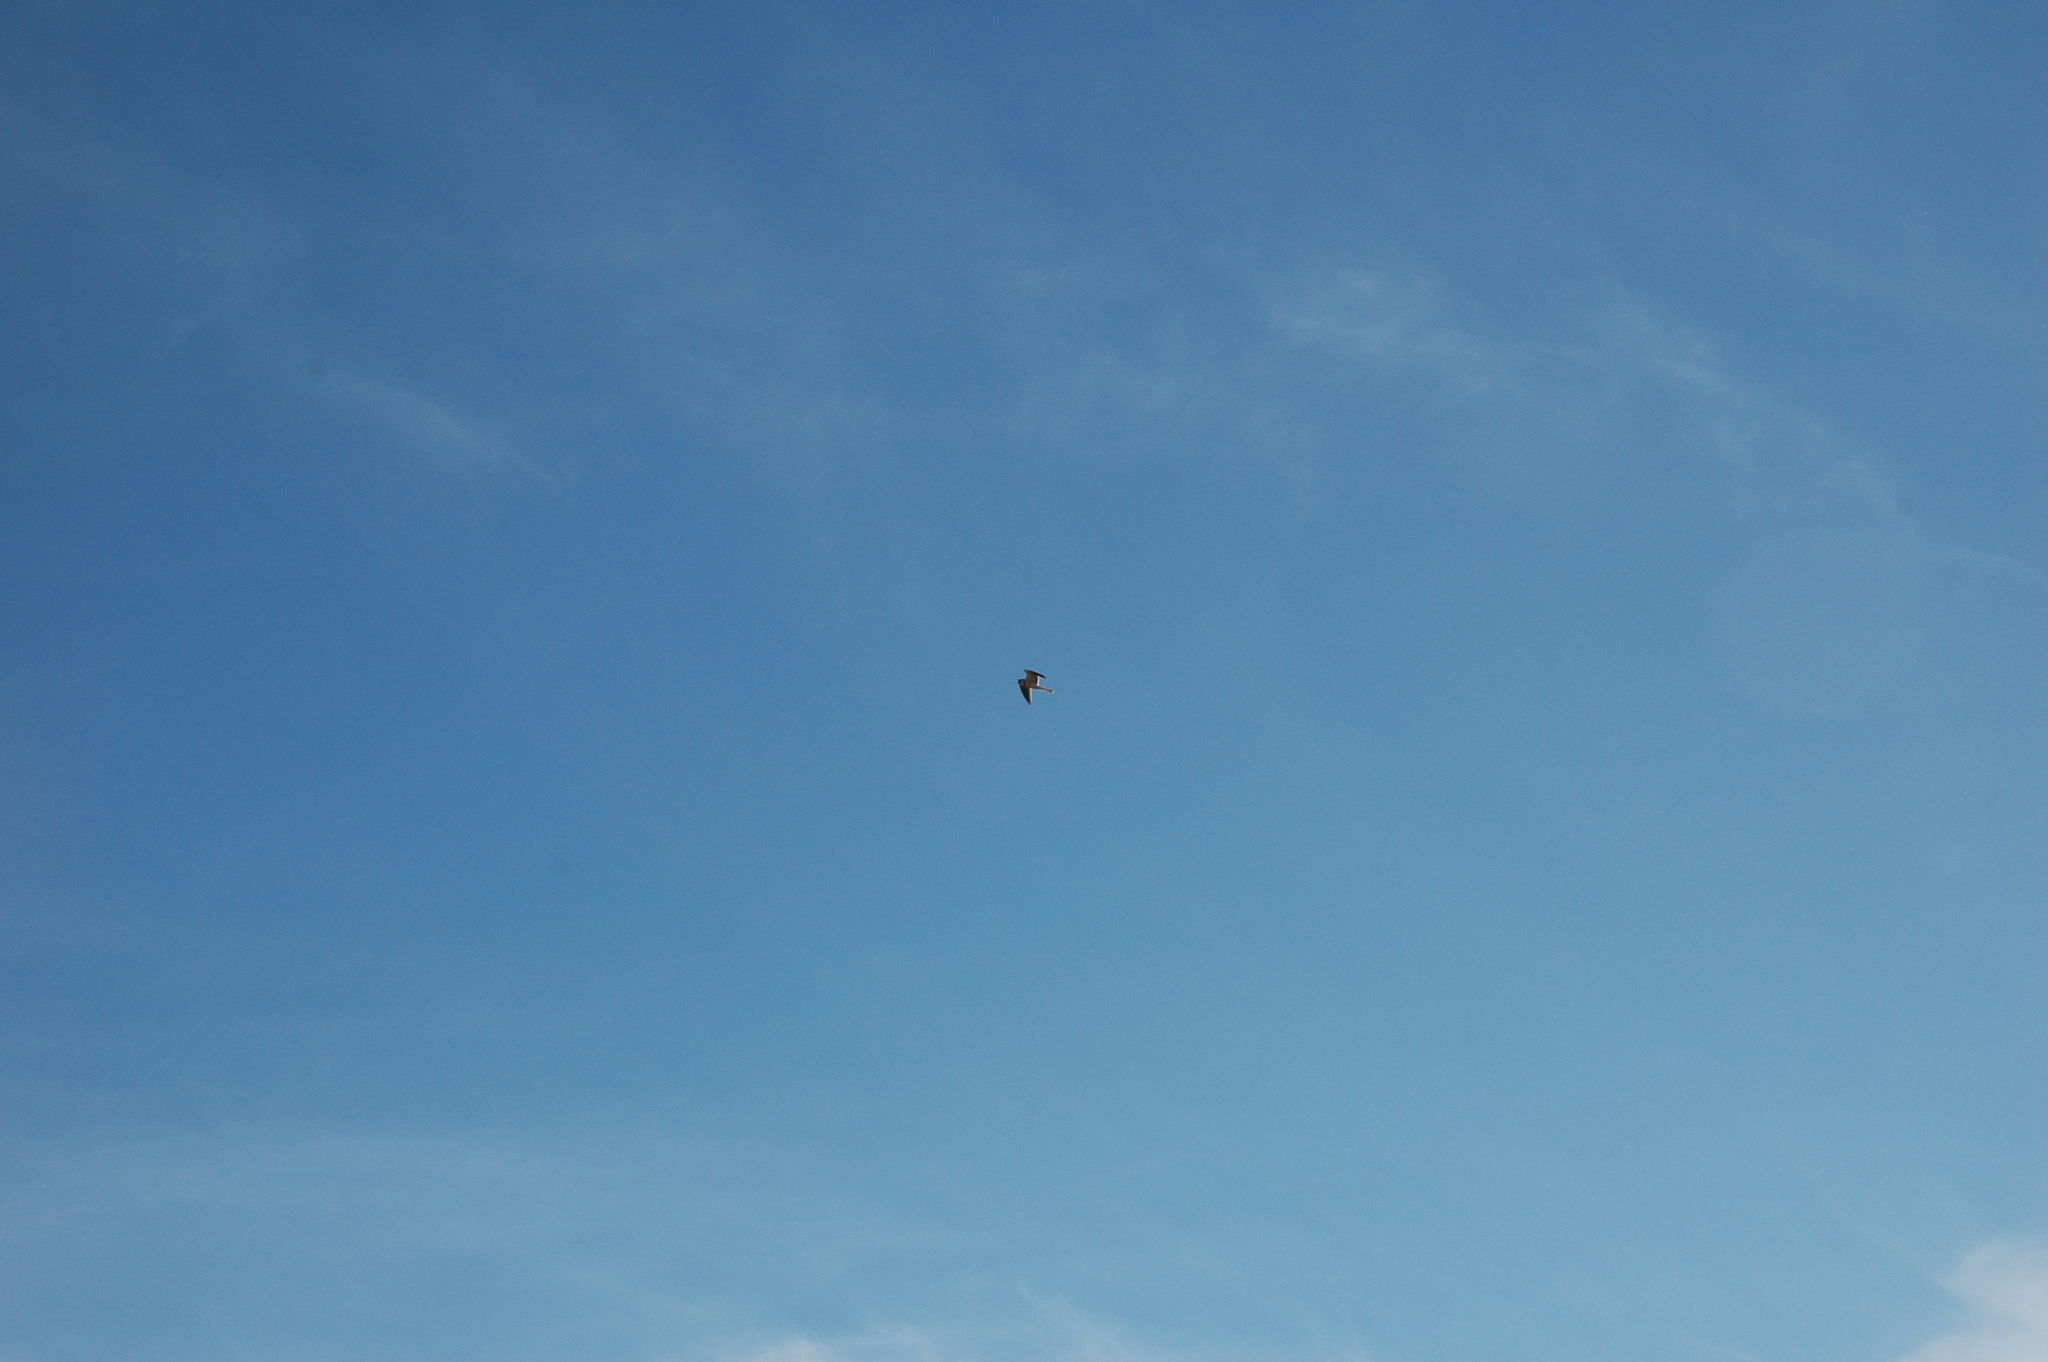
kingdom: Animalia
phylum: Chordata
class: Aves
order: Accipitriformes
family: Accipitridae
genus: Elanus
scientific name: Elanus leucurus
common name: White-tailed kite
